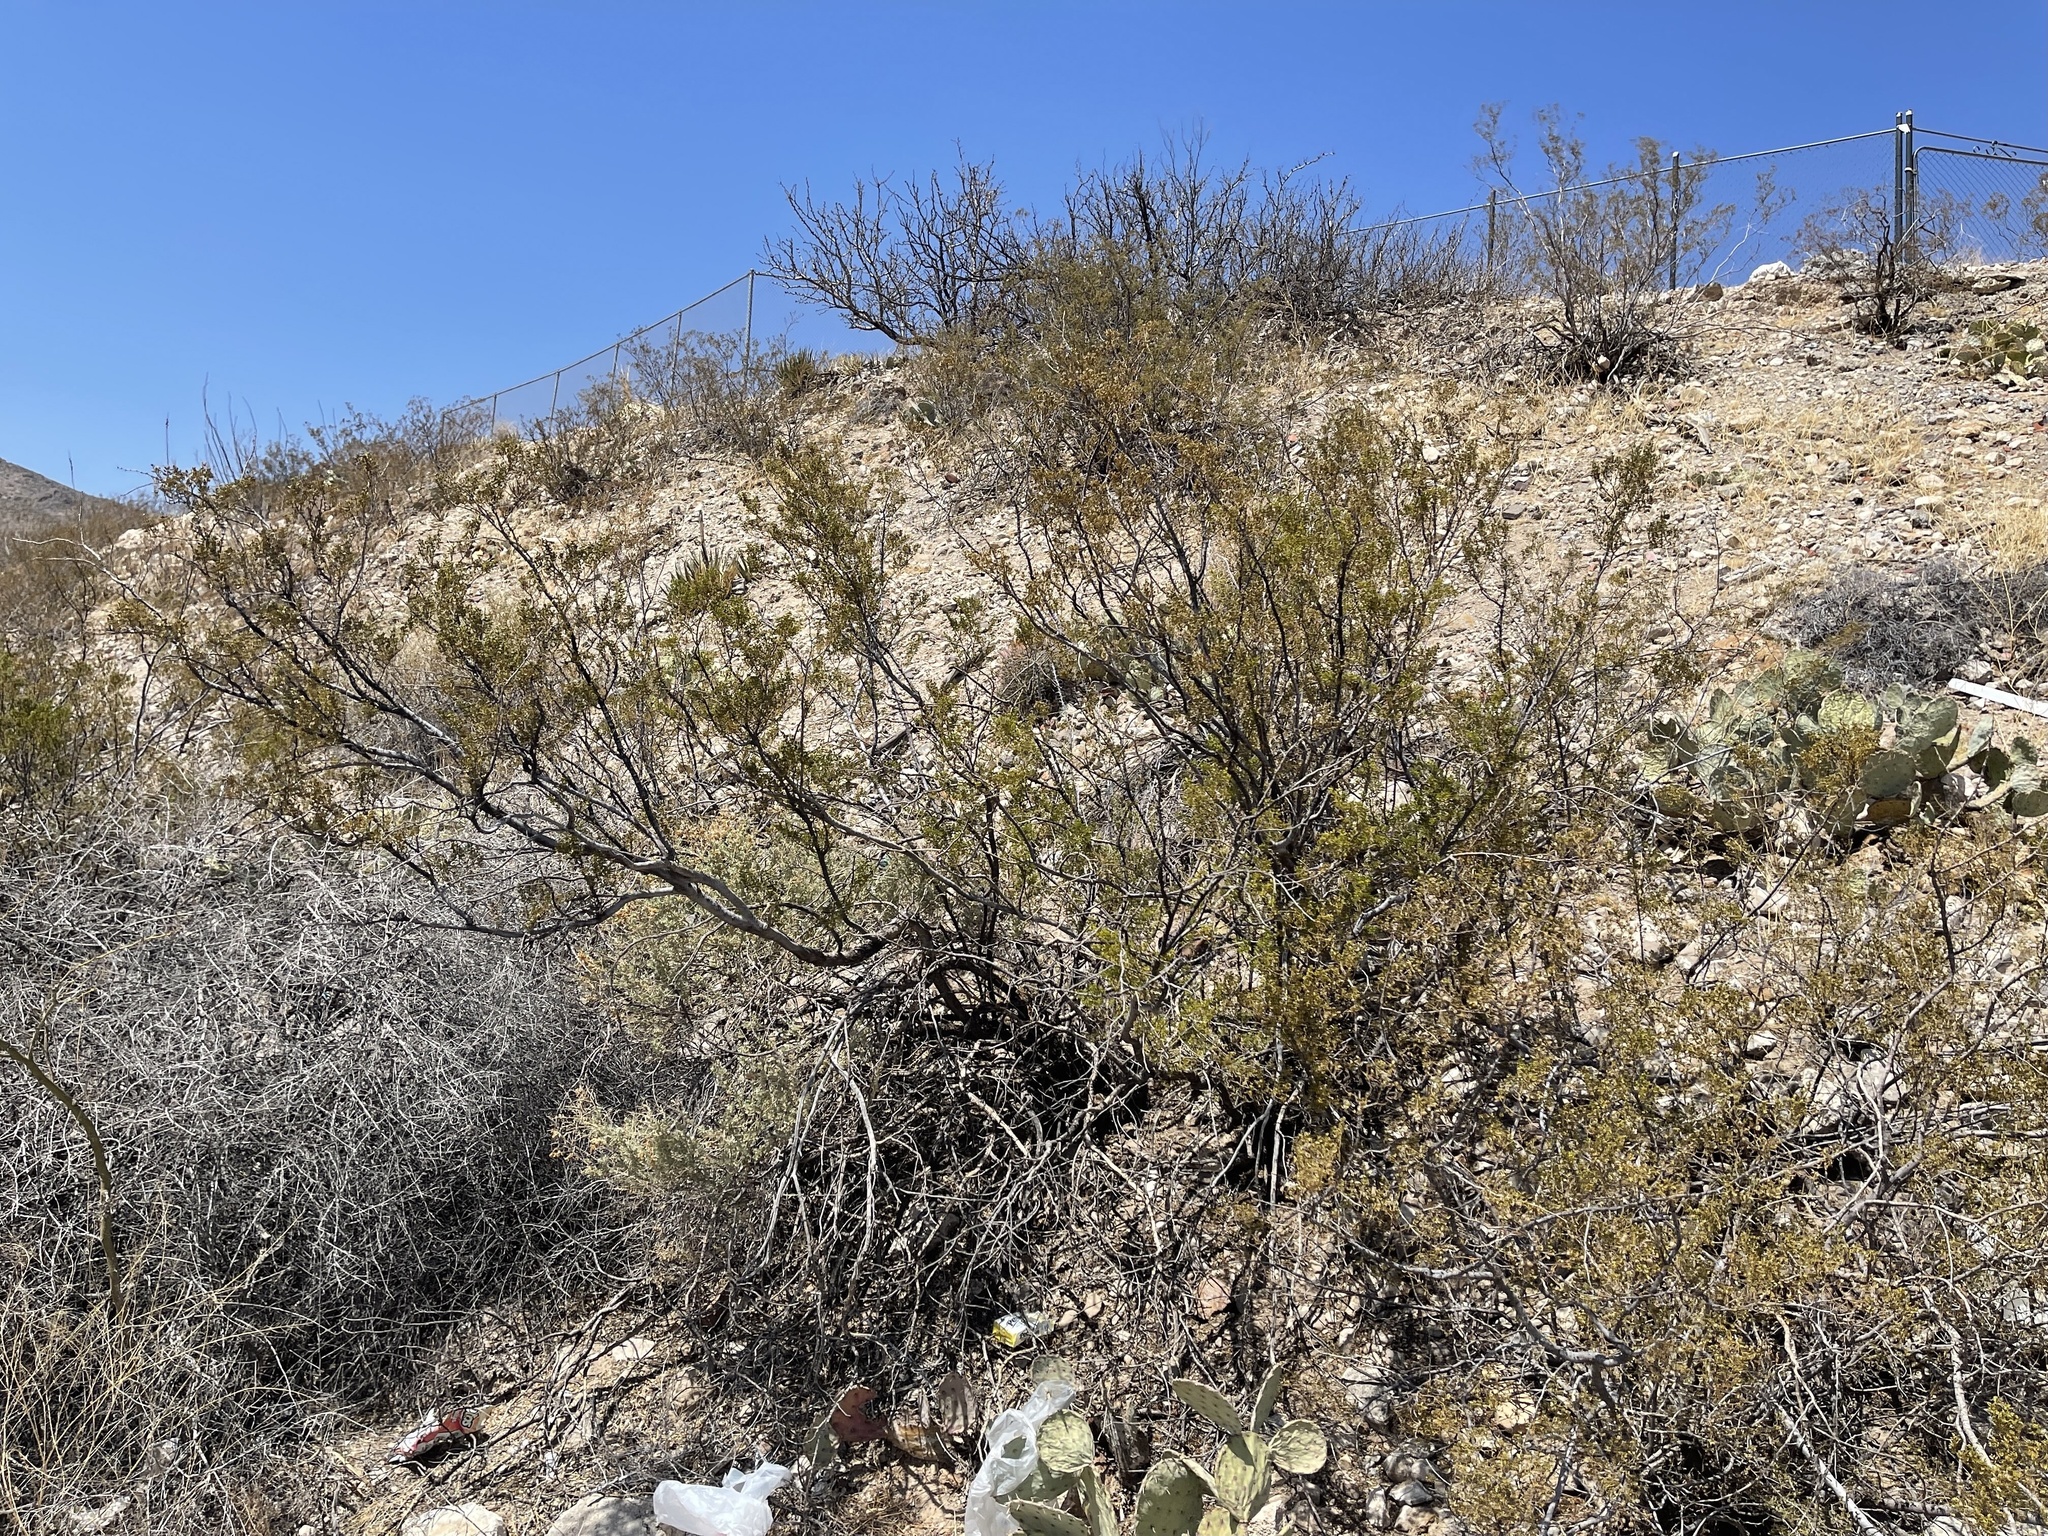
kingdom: Plantae
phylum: Tracheophyta
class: Magnoliopsida
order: Zygophyllales
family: Zygophyllaceae
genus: Larrea
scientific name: Larrea tridentata
